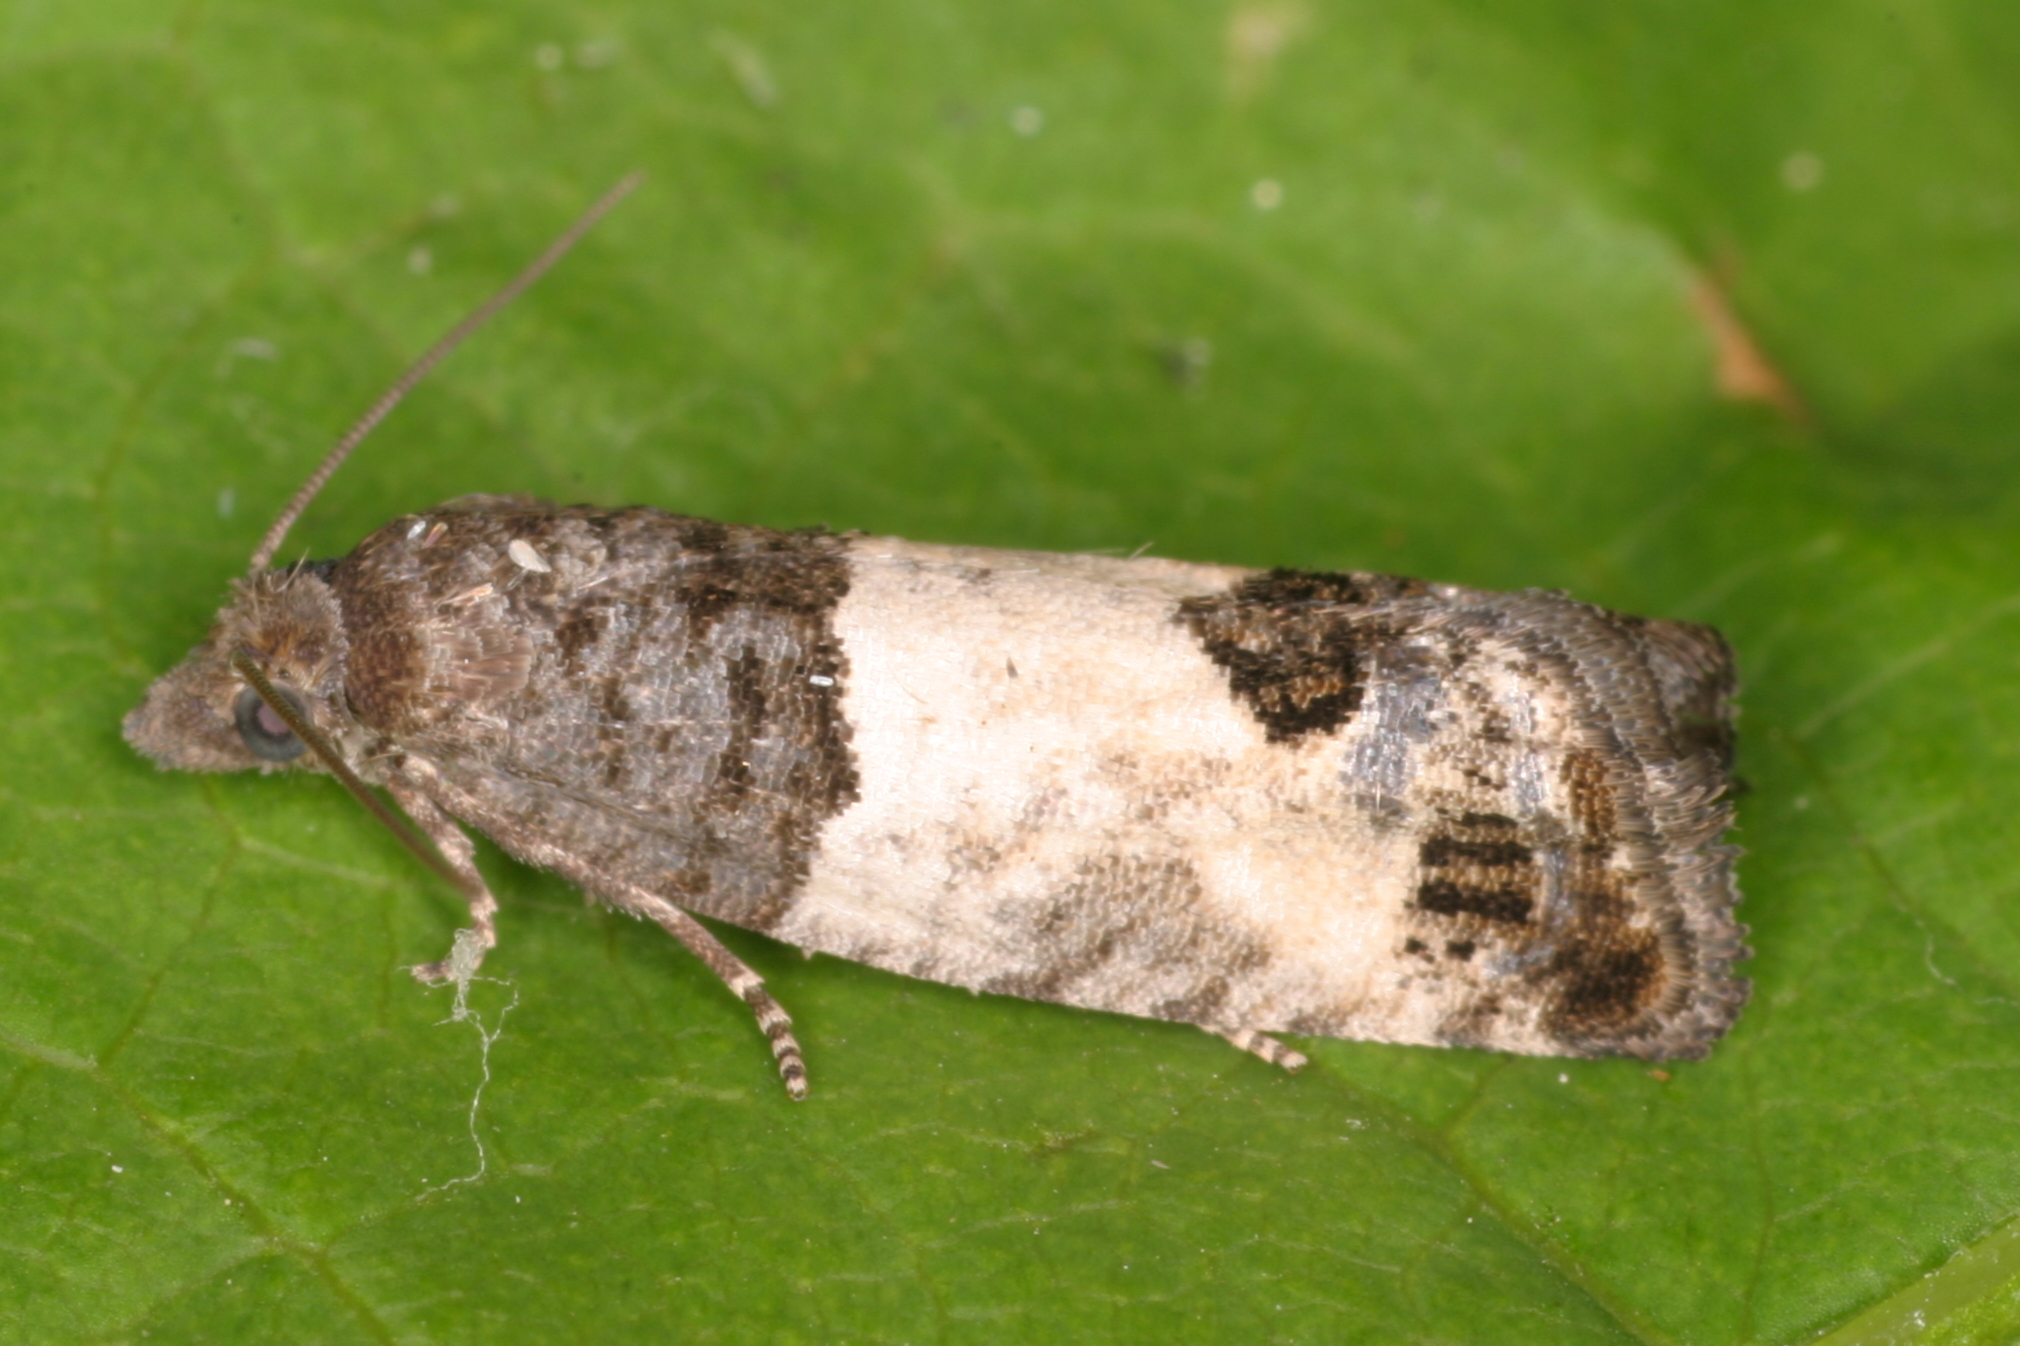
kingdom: Animalia
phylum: Arthropoda
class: Insecta
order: Lepidoptera
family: Tortricidae
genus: Spilonota
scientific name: Spilonota ocellana
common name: Bud moth
